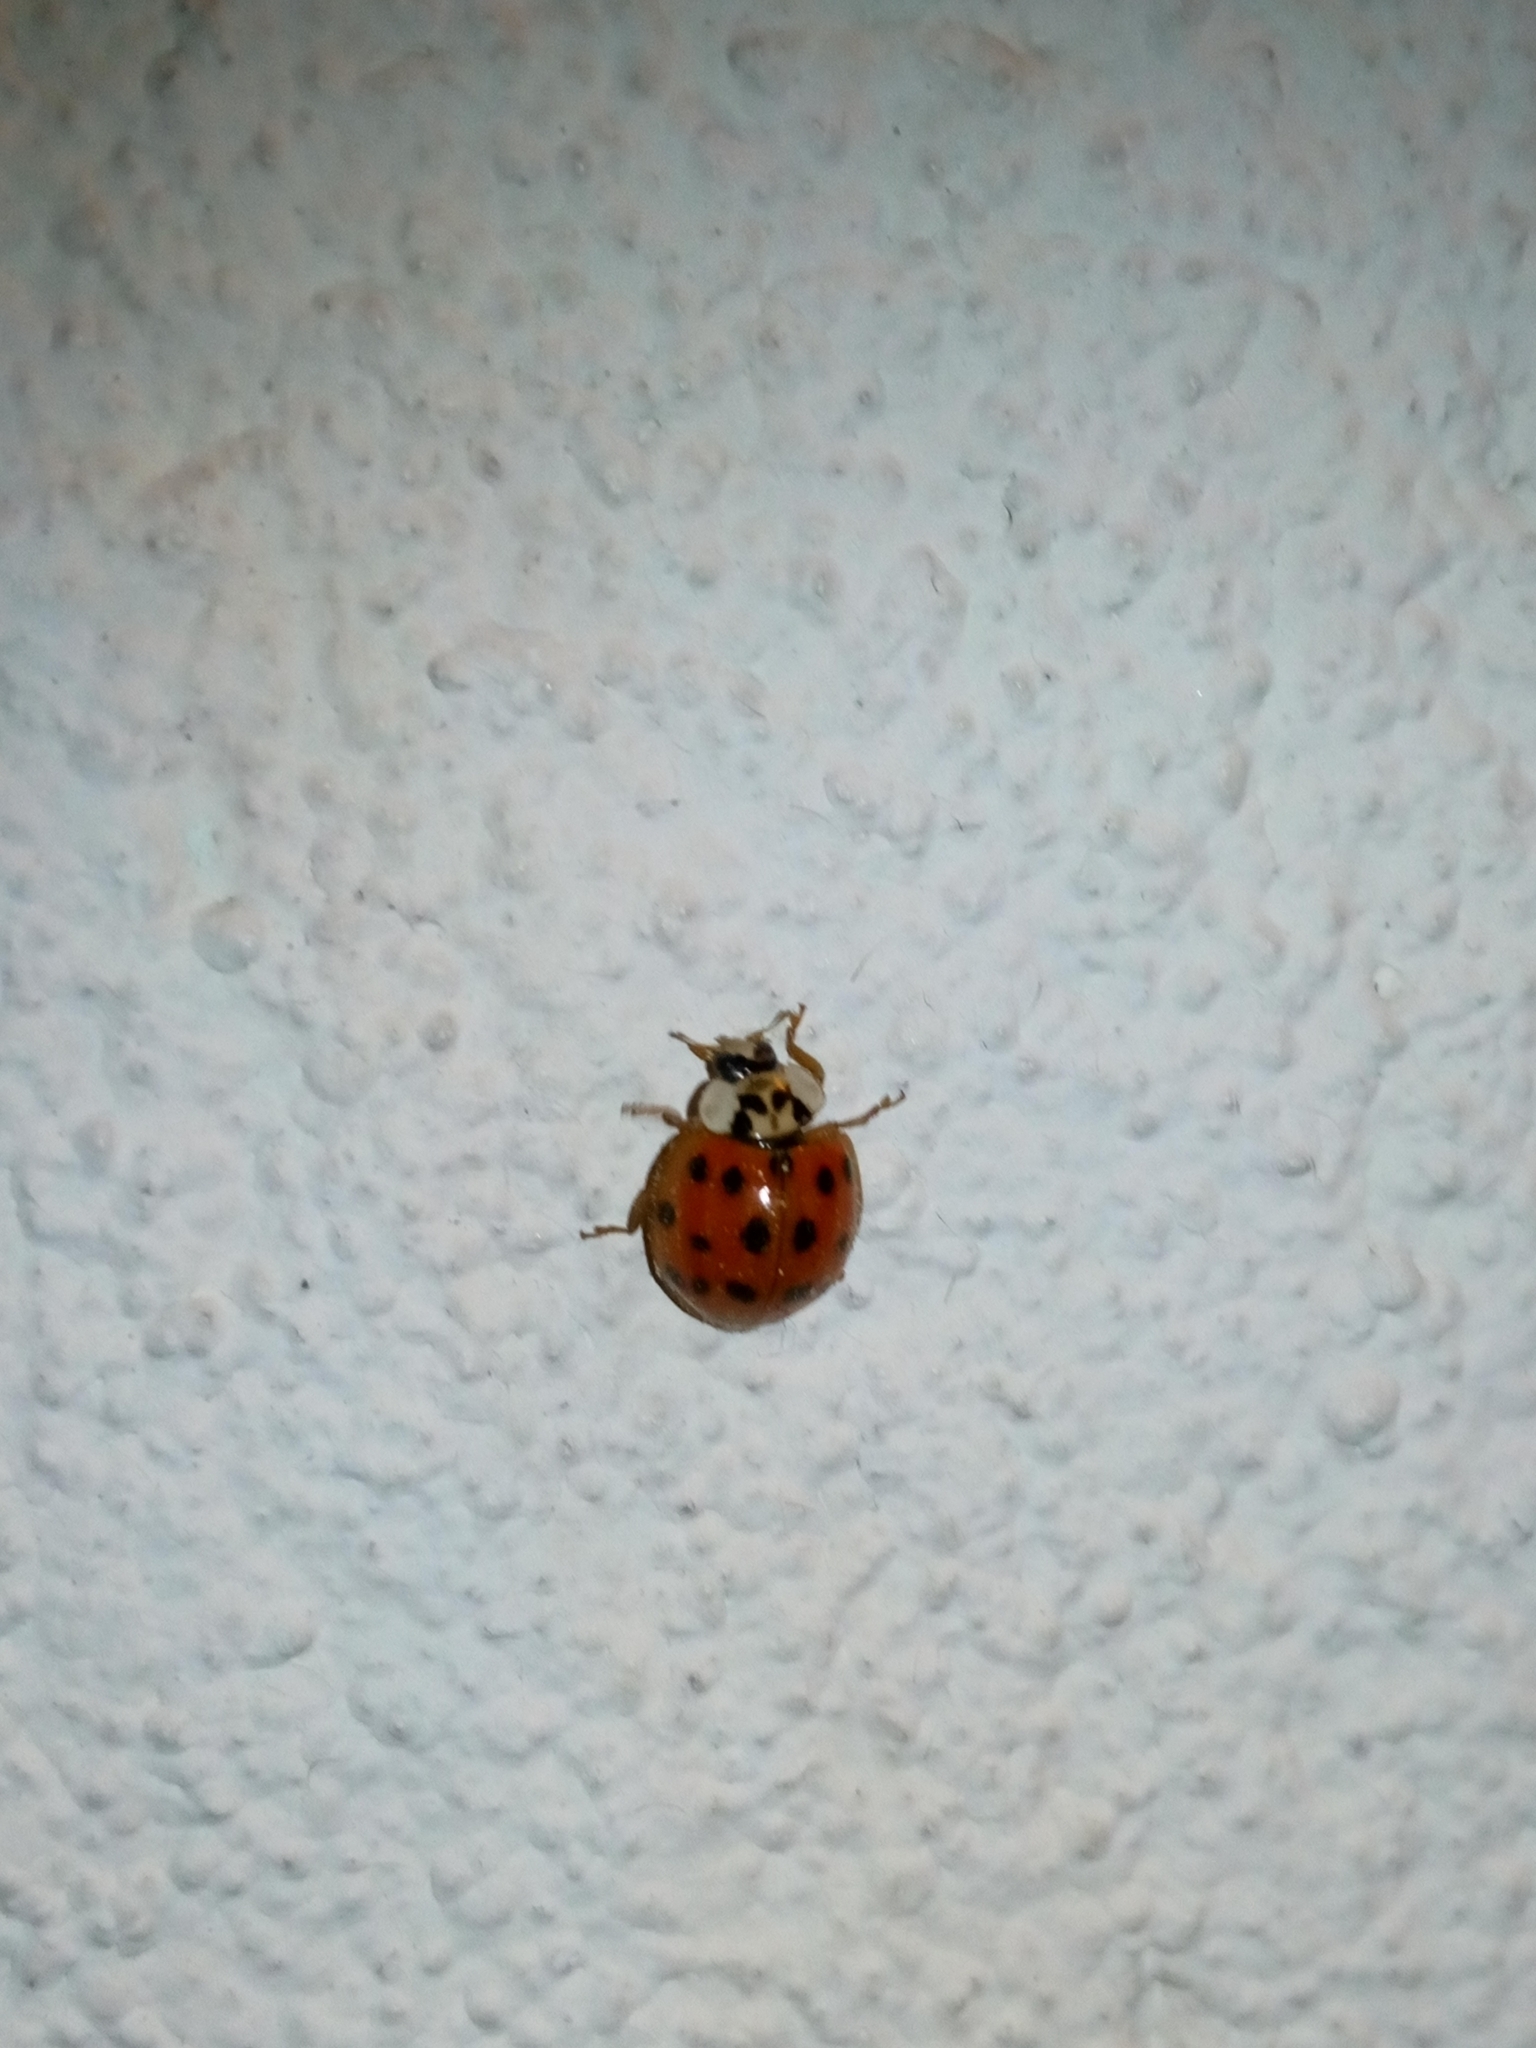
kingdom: Animalia
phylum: Arthropoda
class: Insecta
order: Coleoptera
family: Coccinellidae
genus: Harmonia
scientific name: Harmonia axyridis
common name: Harlequin ladybird
